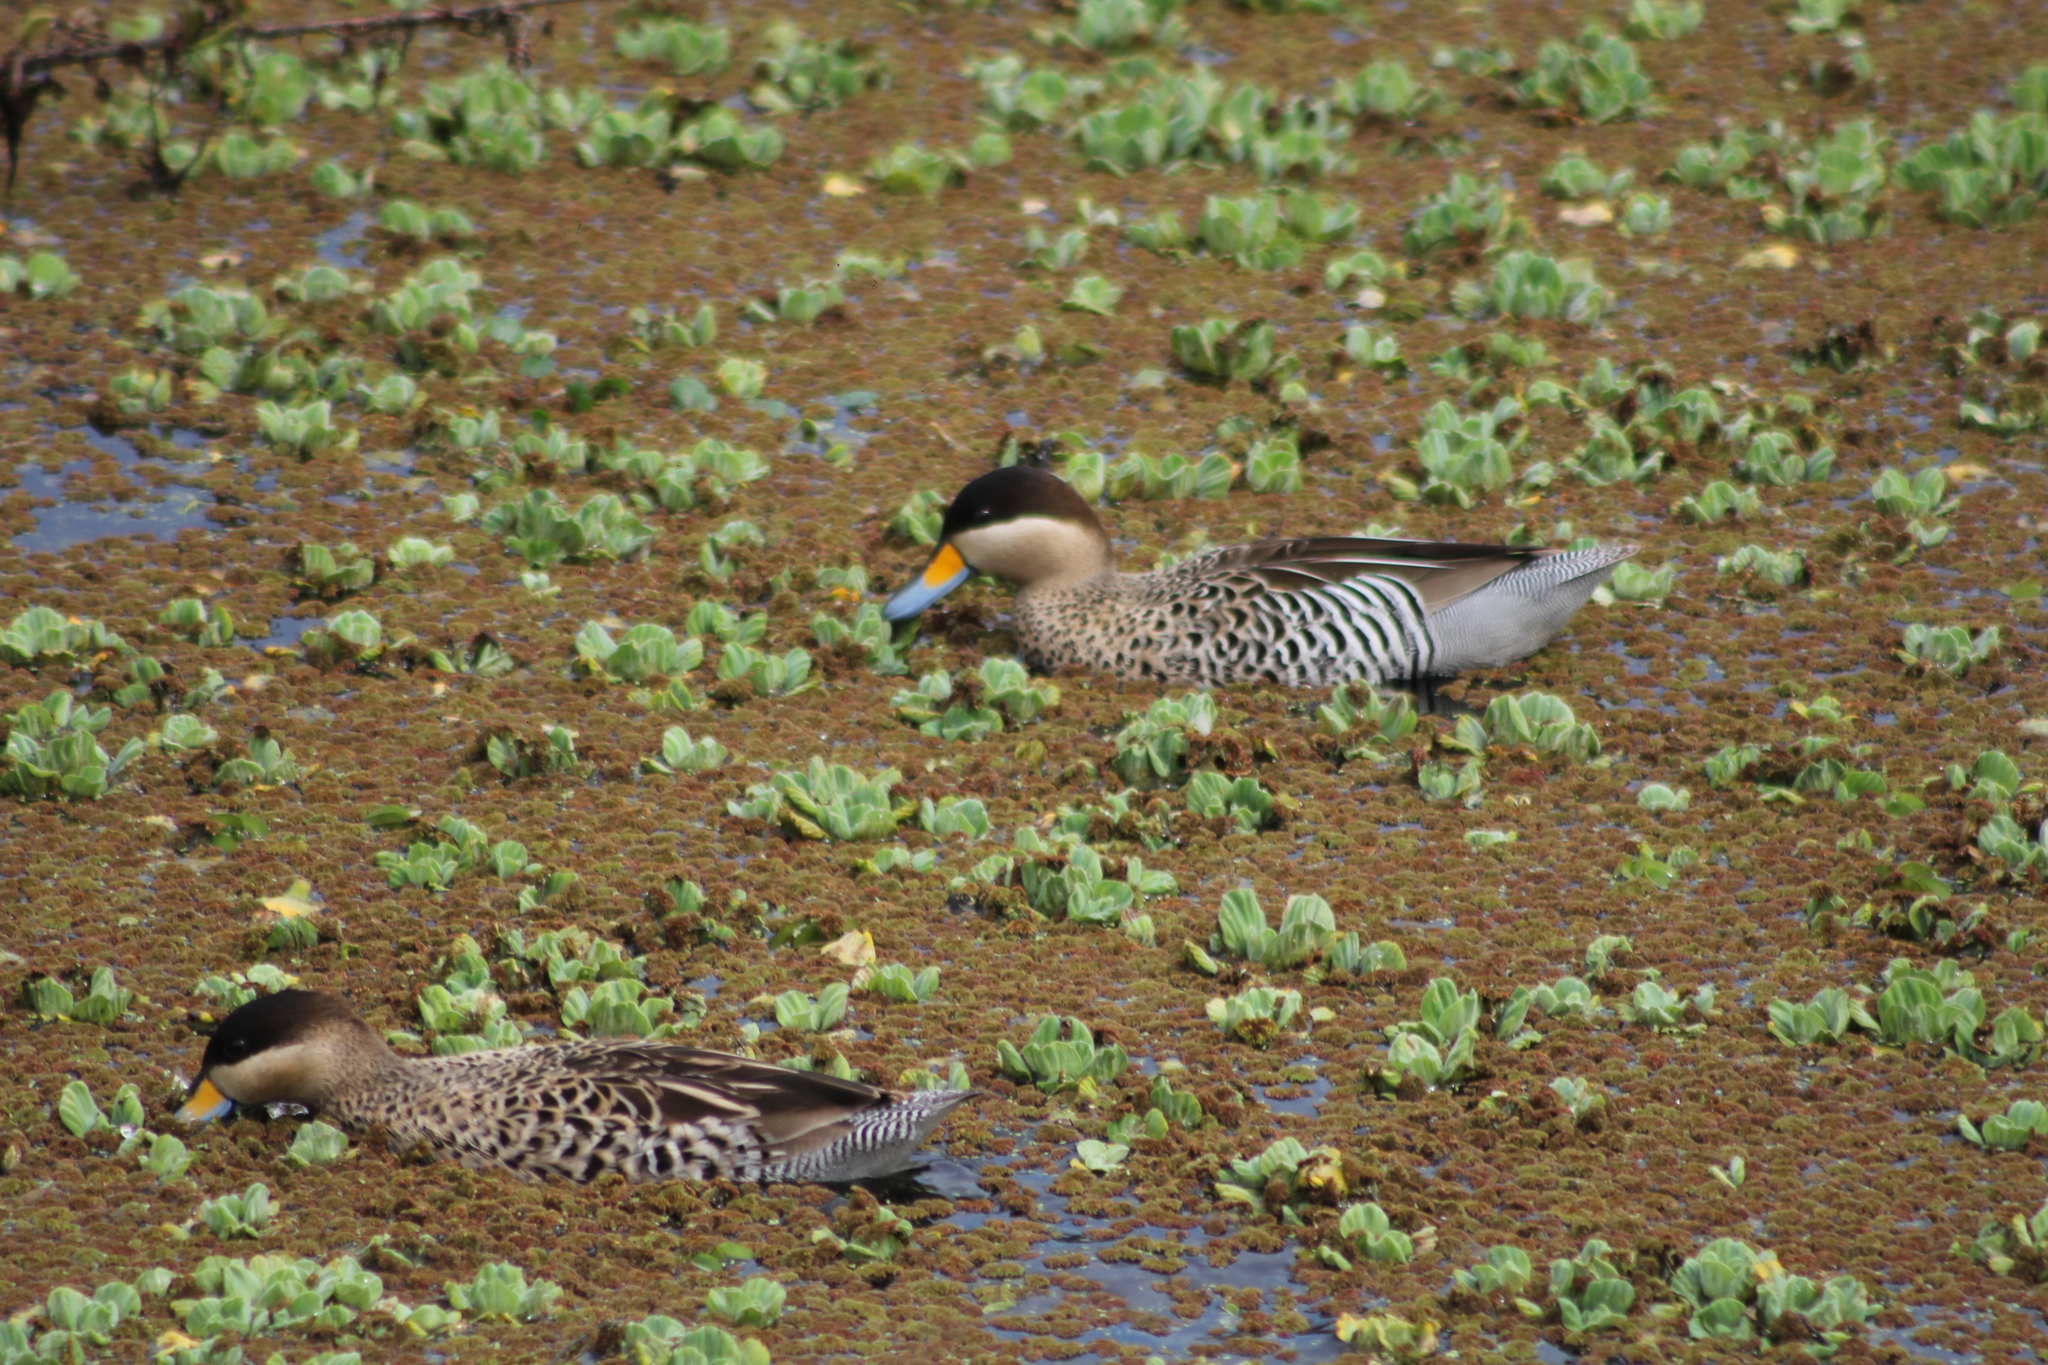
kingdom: Animalia
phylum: Chordata
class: Aves
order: Anseriformes
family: Anatidae
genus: Spatula
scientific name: Spatula versicolor
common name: Silver teal
